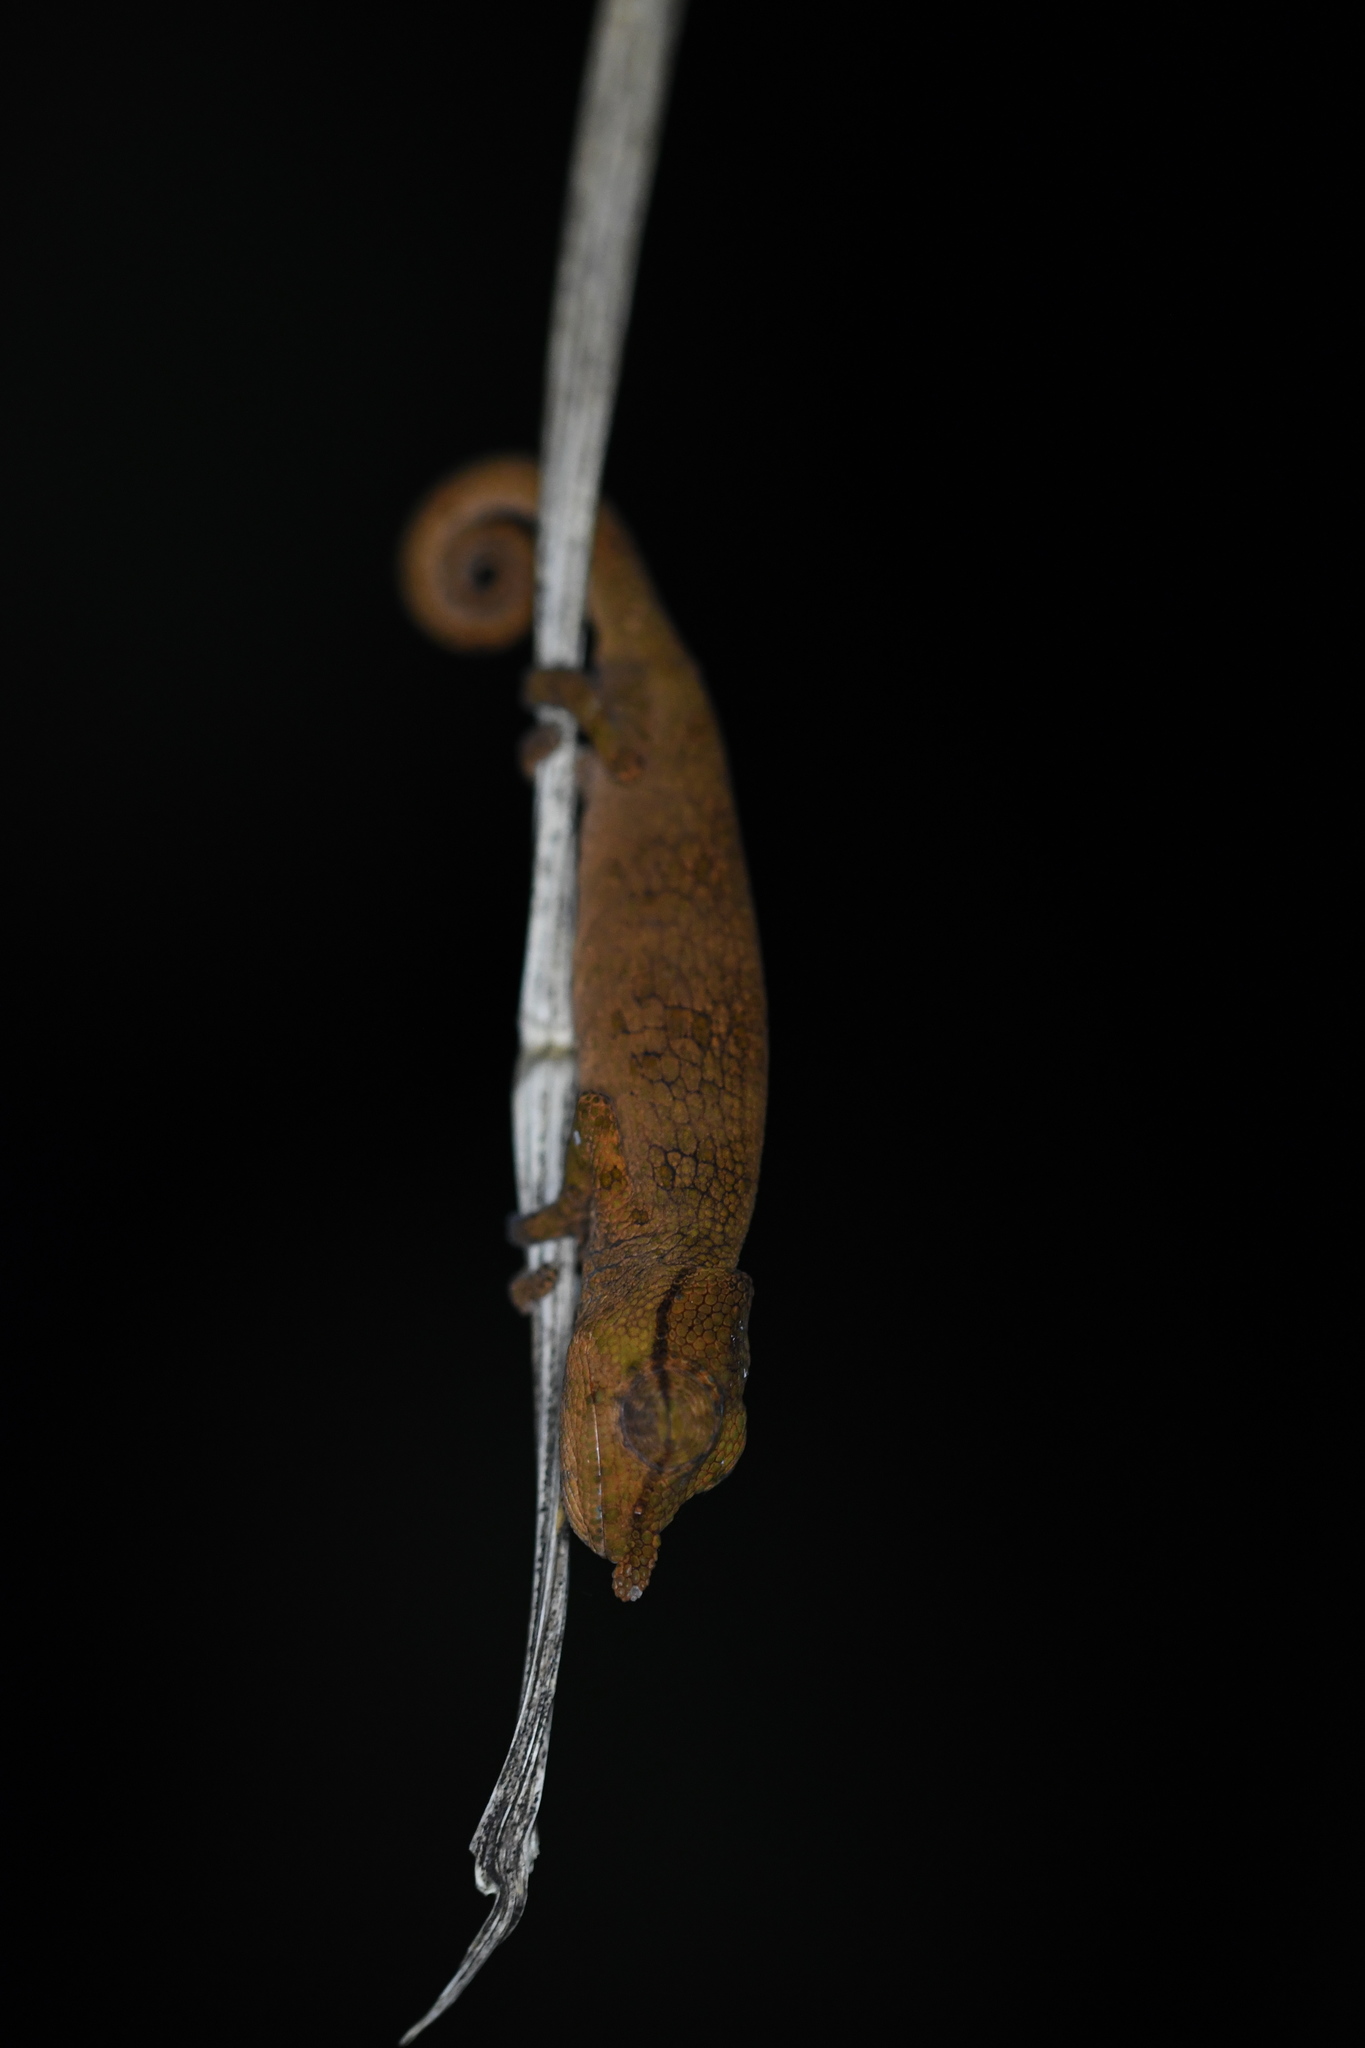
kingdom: Animalia
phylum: Chordata
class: Squamata
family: Chamaeleonidae
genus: Calumma
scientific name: Calumma tjiasmantoi
